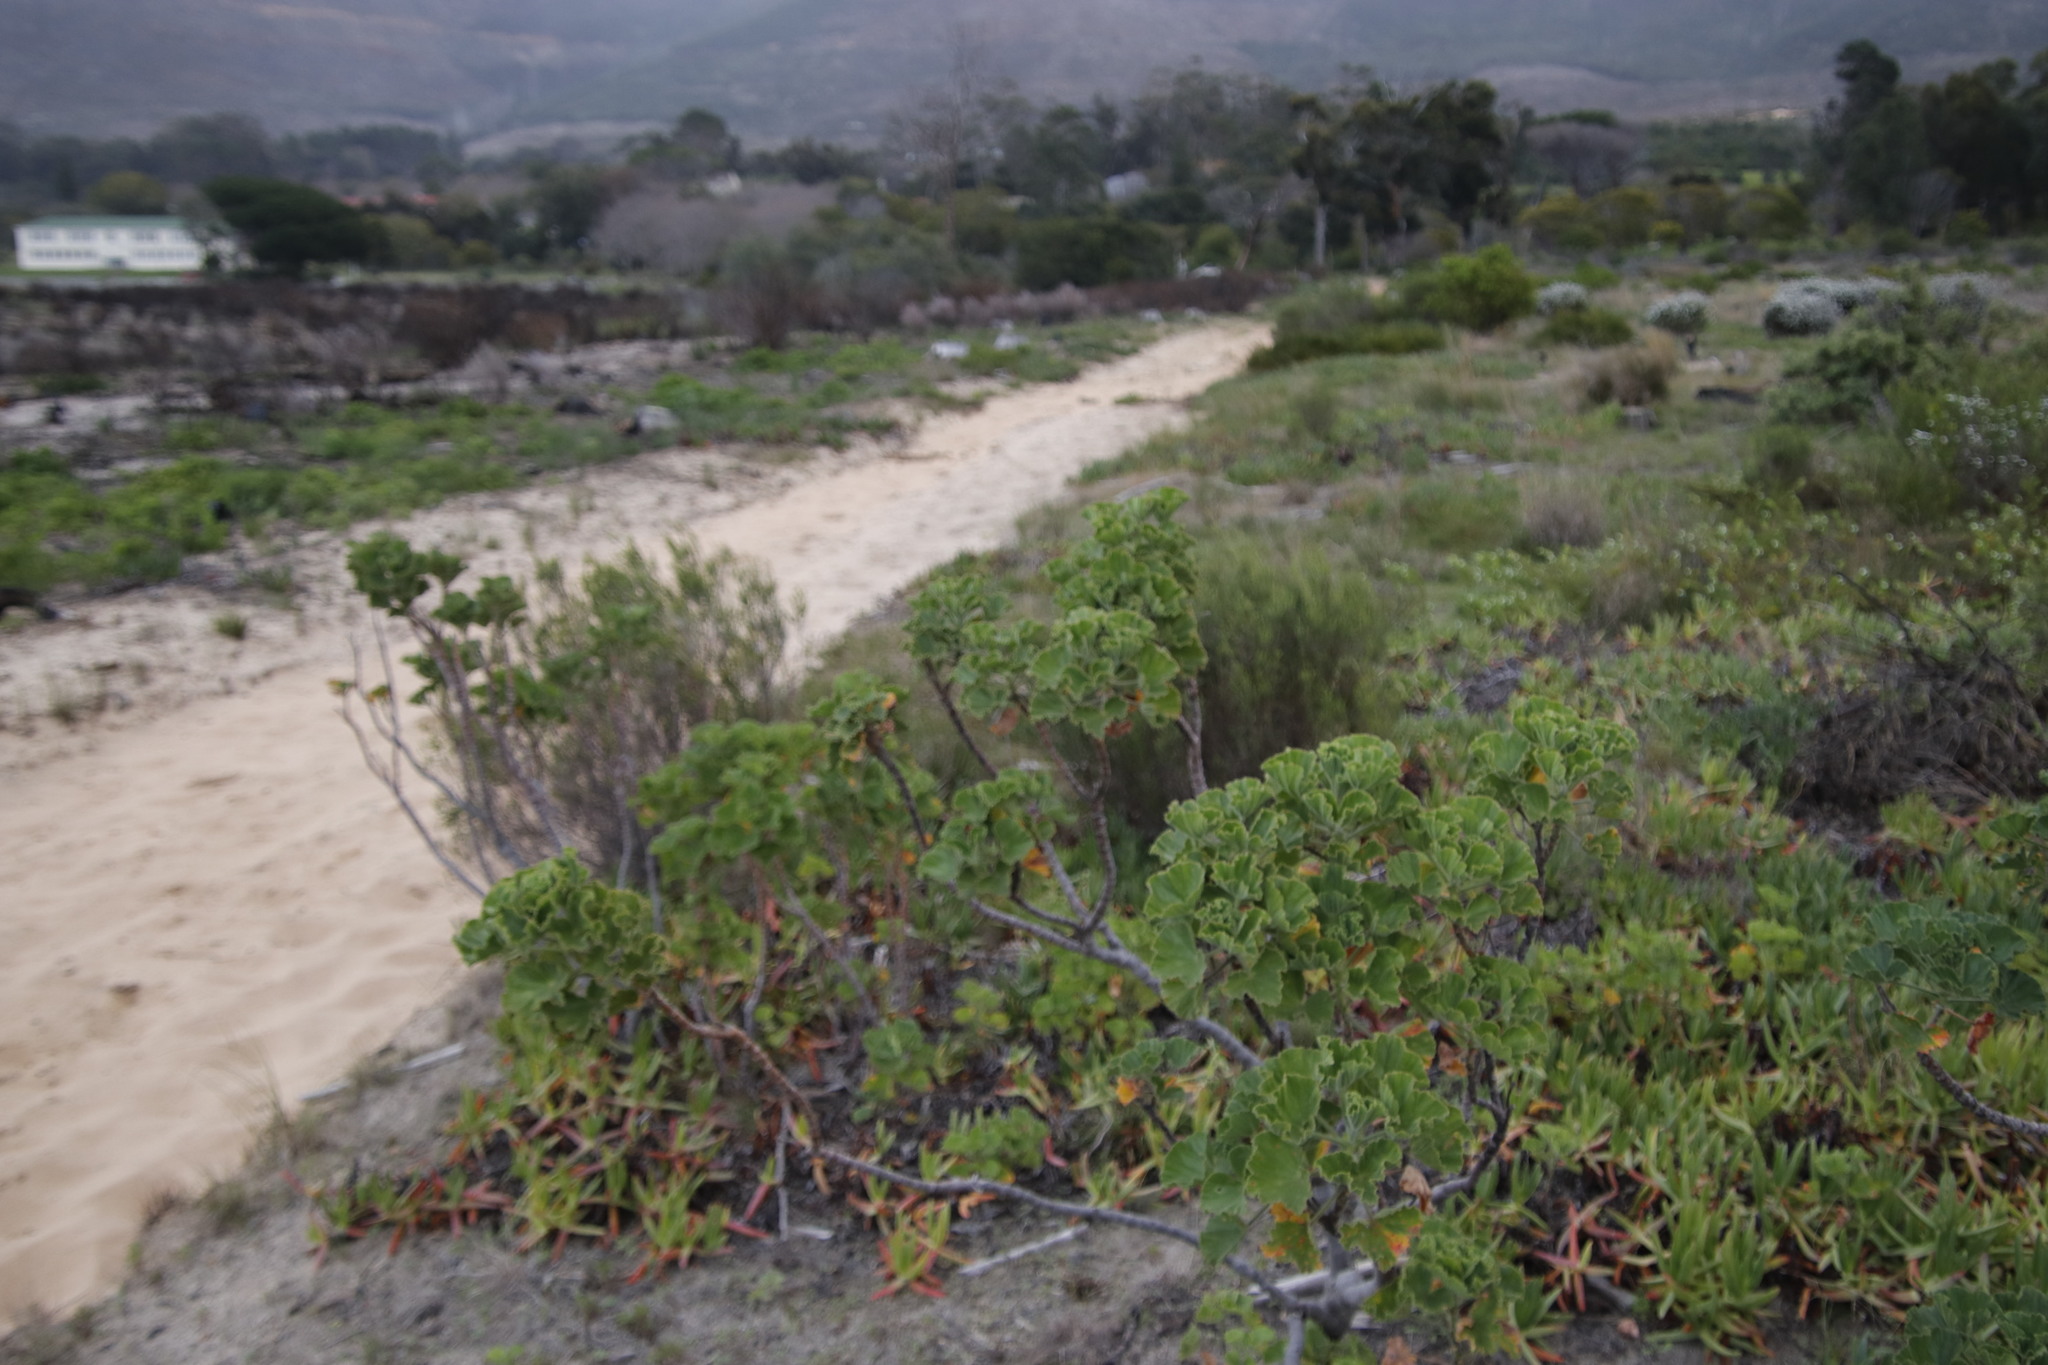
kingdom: Plantae
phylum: Tracheophyta
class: Magnoliopsida
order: Geraniales
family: Geraniaceae
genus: Pelargonium
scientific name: Pelargonium cucullatum
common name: Tree pelargonium
